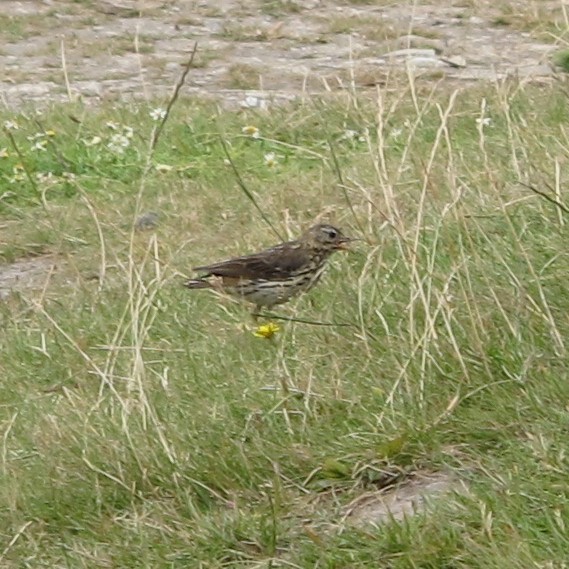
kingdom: Animalia
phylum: Chordata
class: Aves
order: Passeriformes
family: Motacillidae
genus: Anthus
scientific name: Anthus pratensis
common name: Meadow pipit
